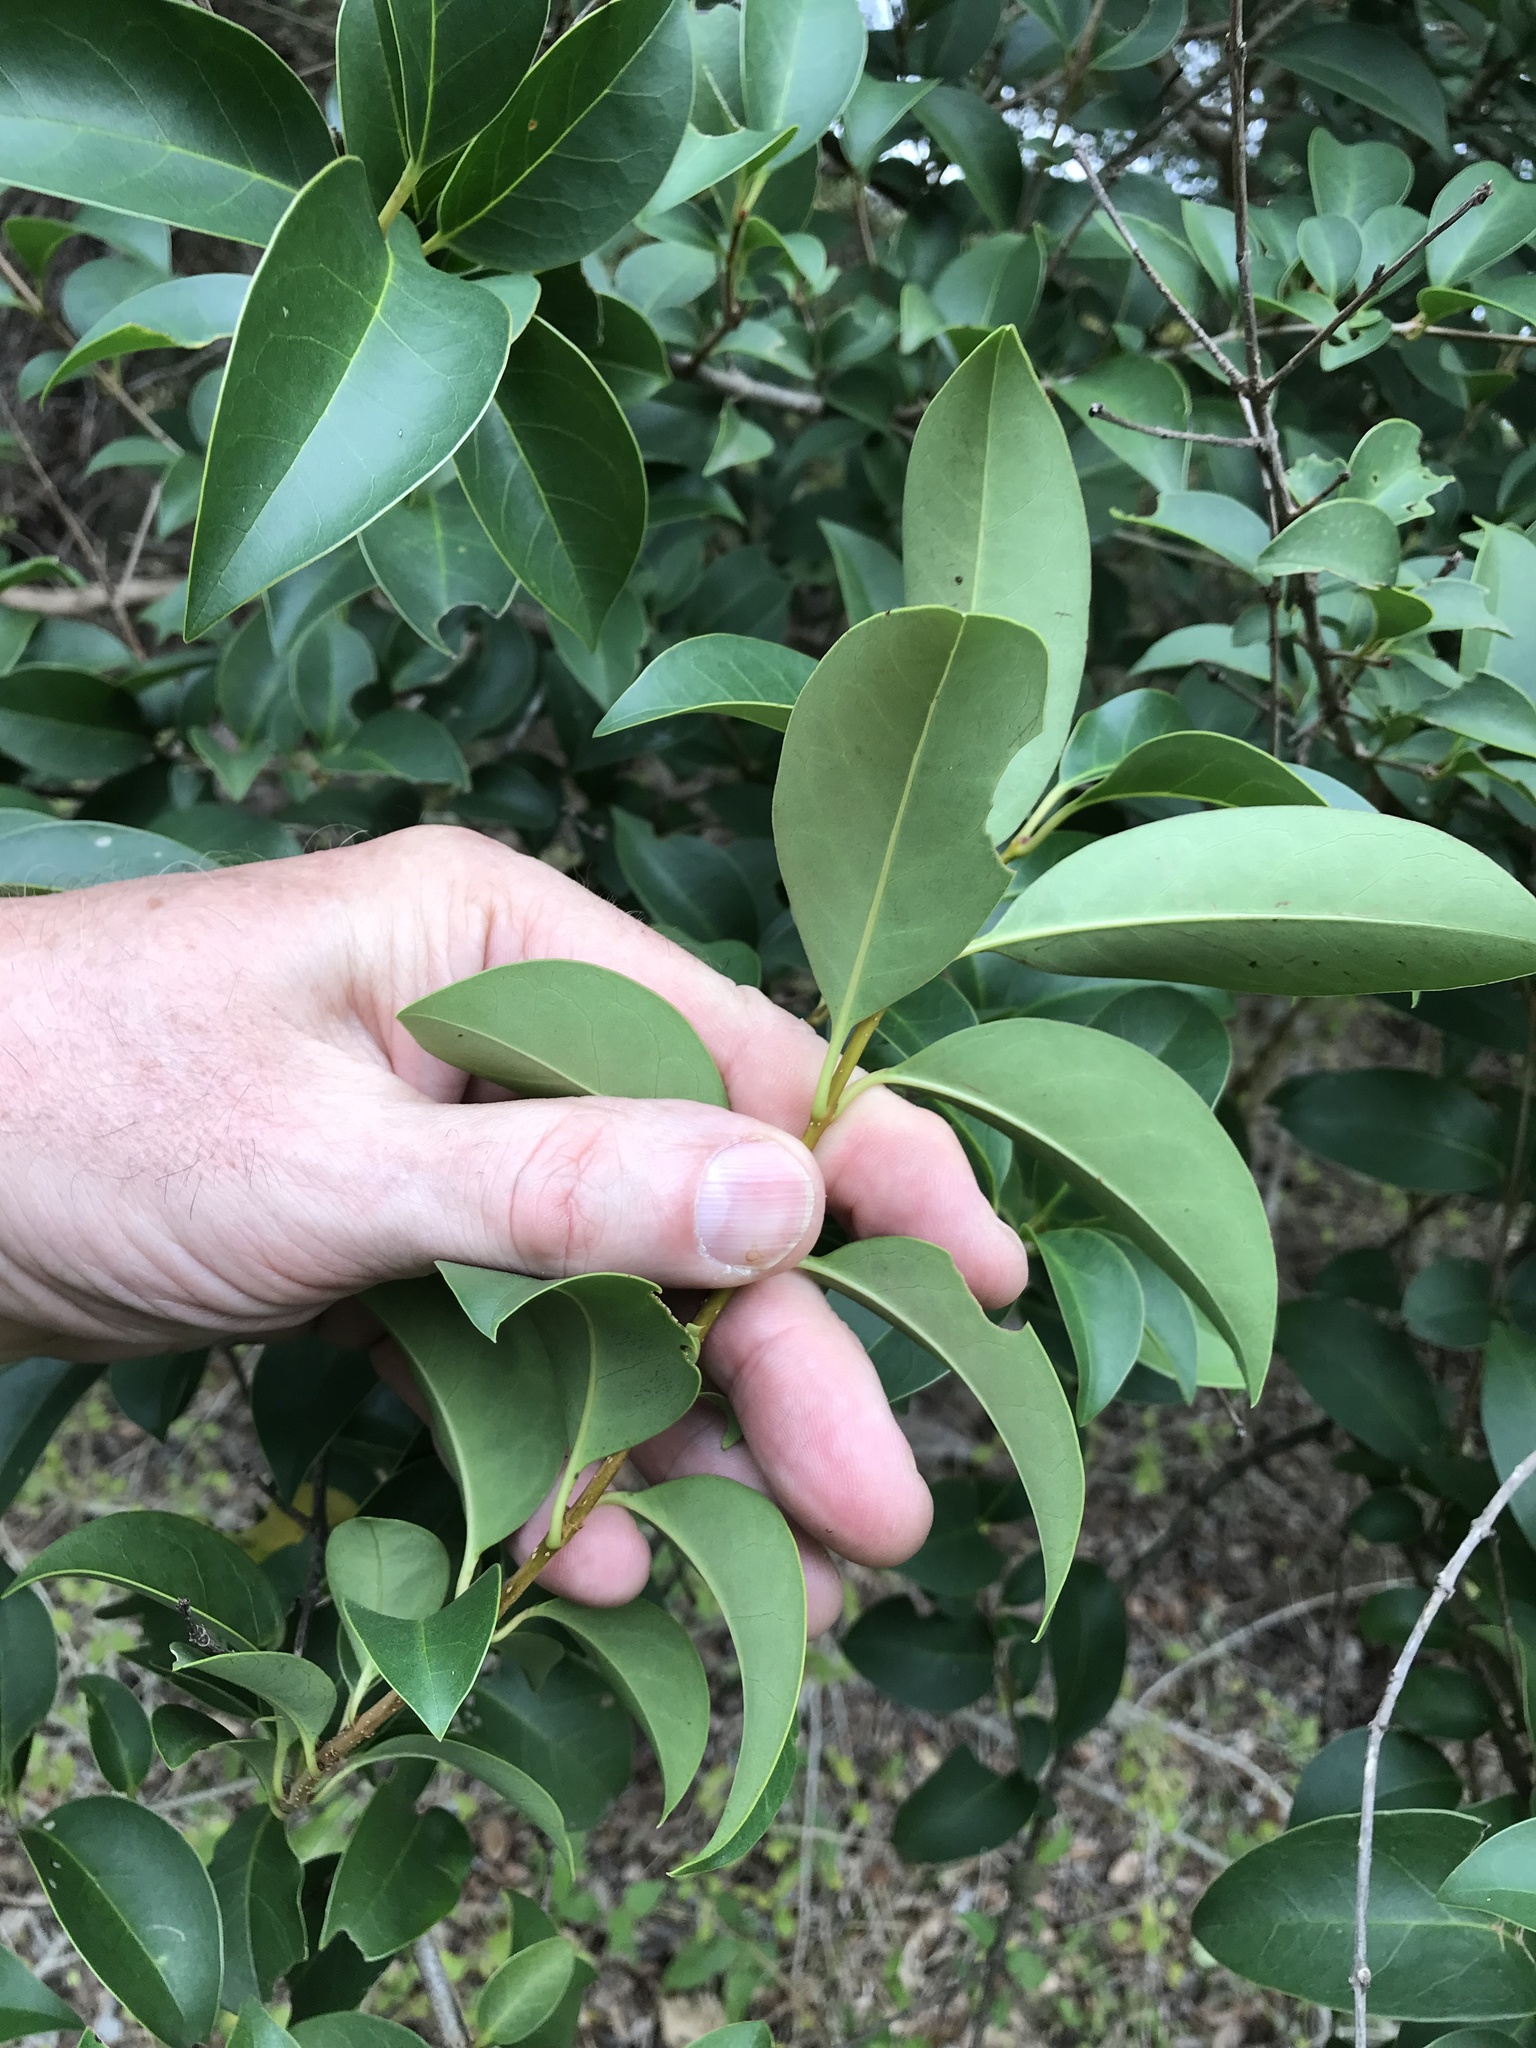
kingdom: Plantae
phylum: Tracheophyta
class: Magnoliopsida
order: Lamiales
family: Oleaceae
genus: Ligustrum
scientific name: Ligustrum lucidum
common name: Glossy privet
